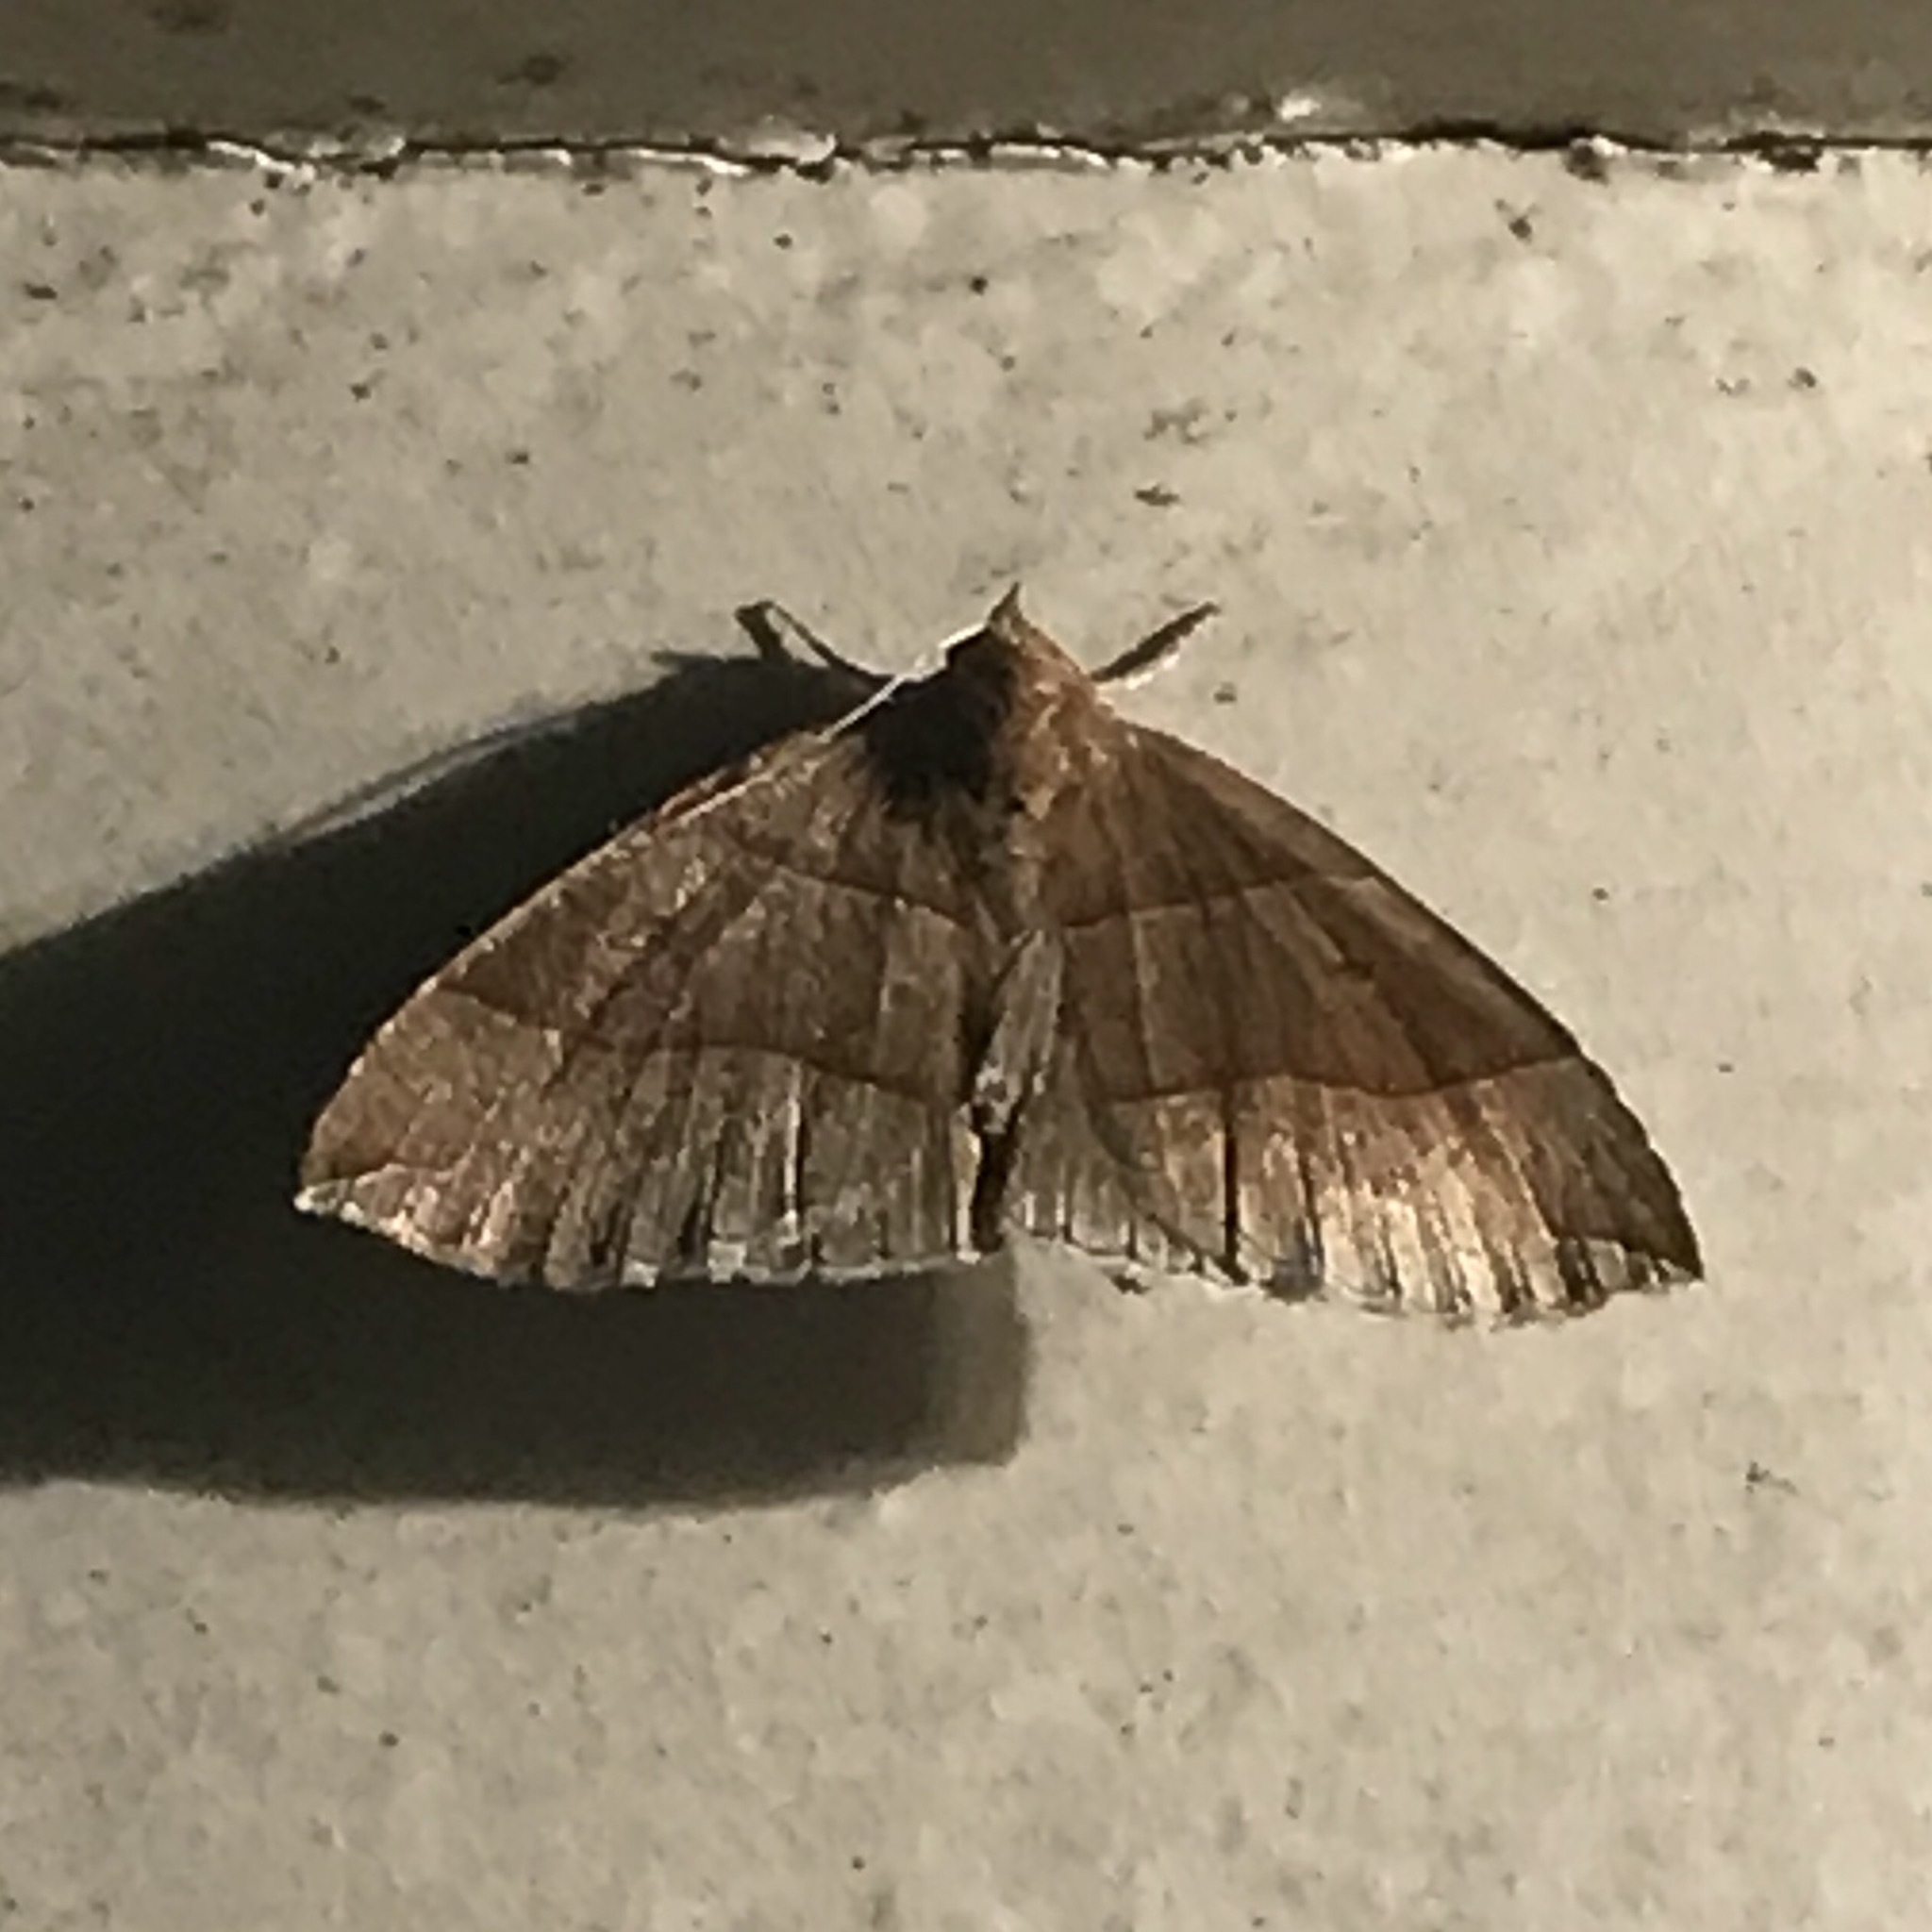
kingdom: Animalia
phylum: Arthropoda
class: Insecta
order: Lepidoptera
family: Erebidae
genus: Parallelia
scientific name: Parallelia bistriaris
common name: Maple looper moth
